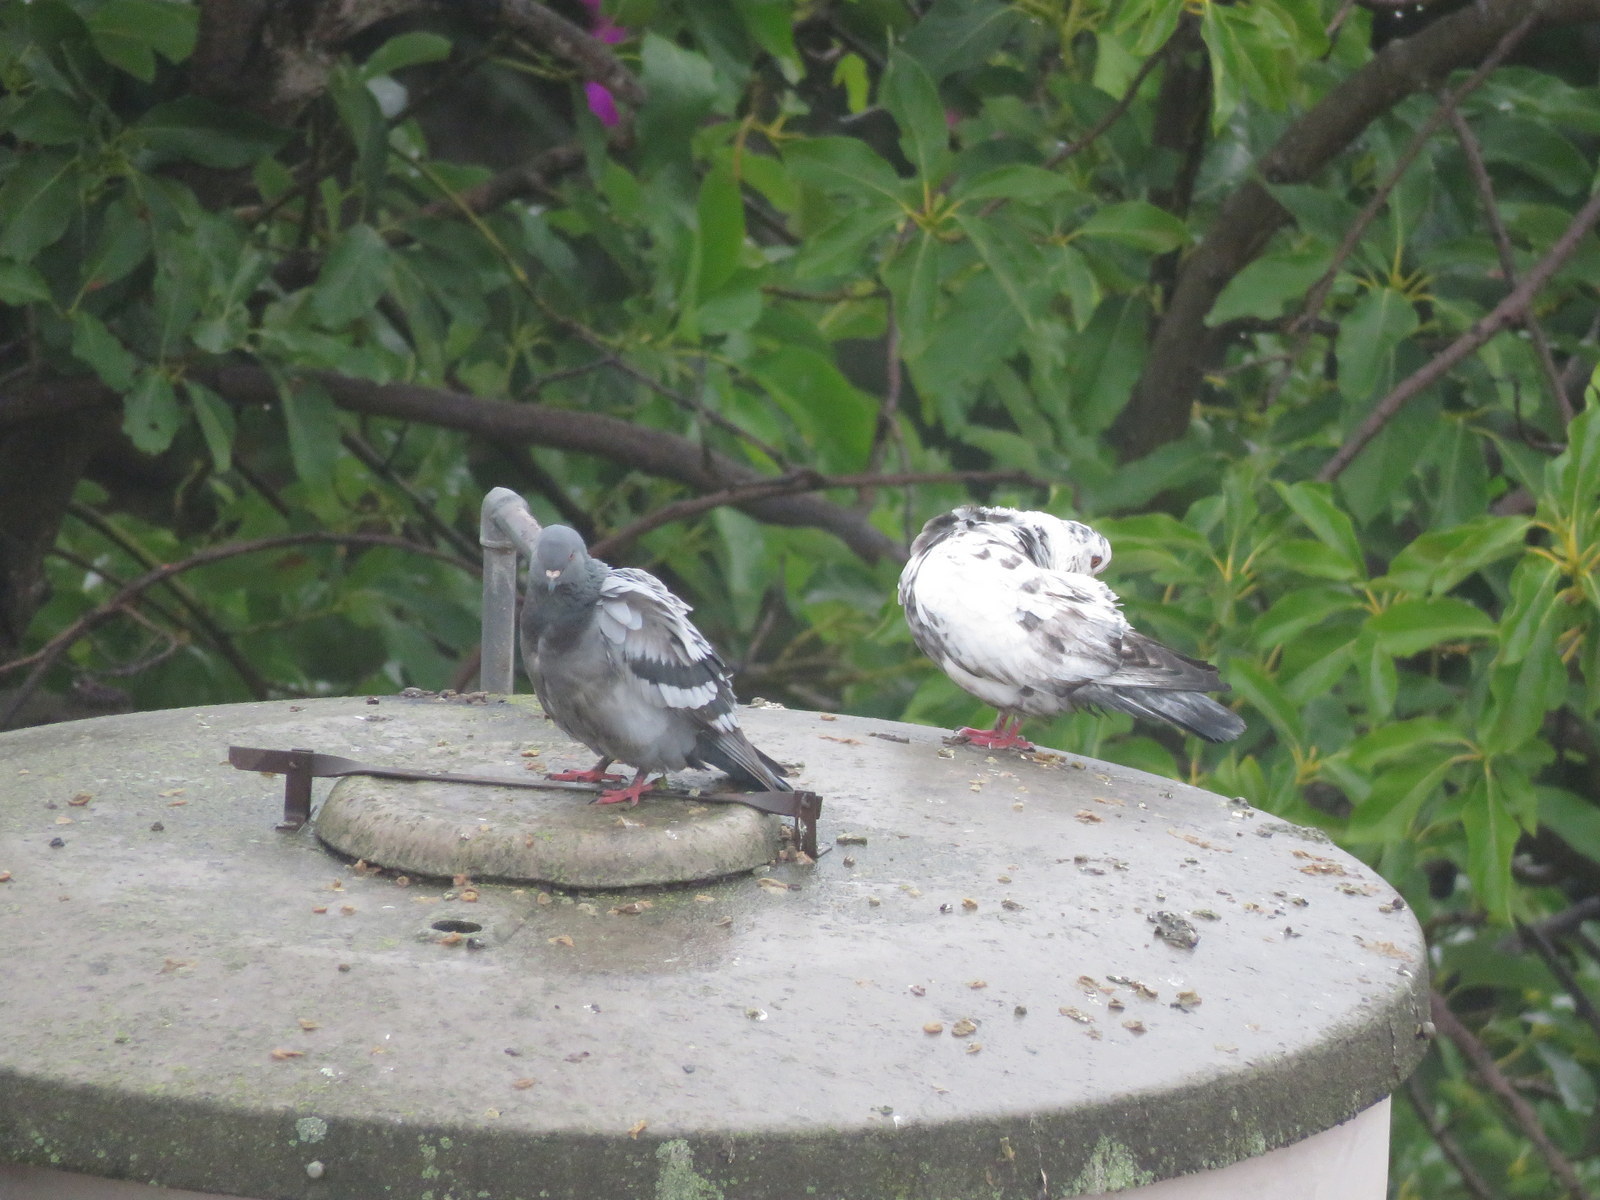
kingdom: Animalia
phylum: Chordata
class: Aves
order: Columbiformes
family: Columbidae
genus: Columba
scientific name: Columba livia
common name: Rock pigeon
